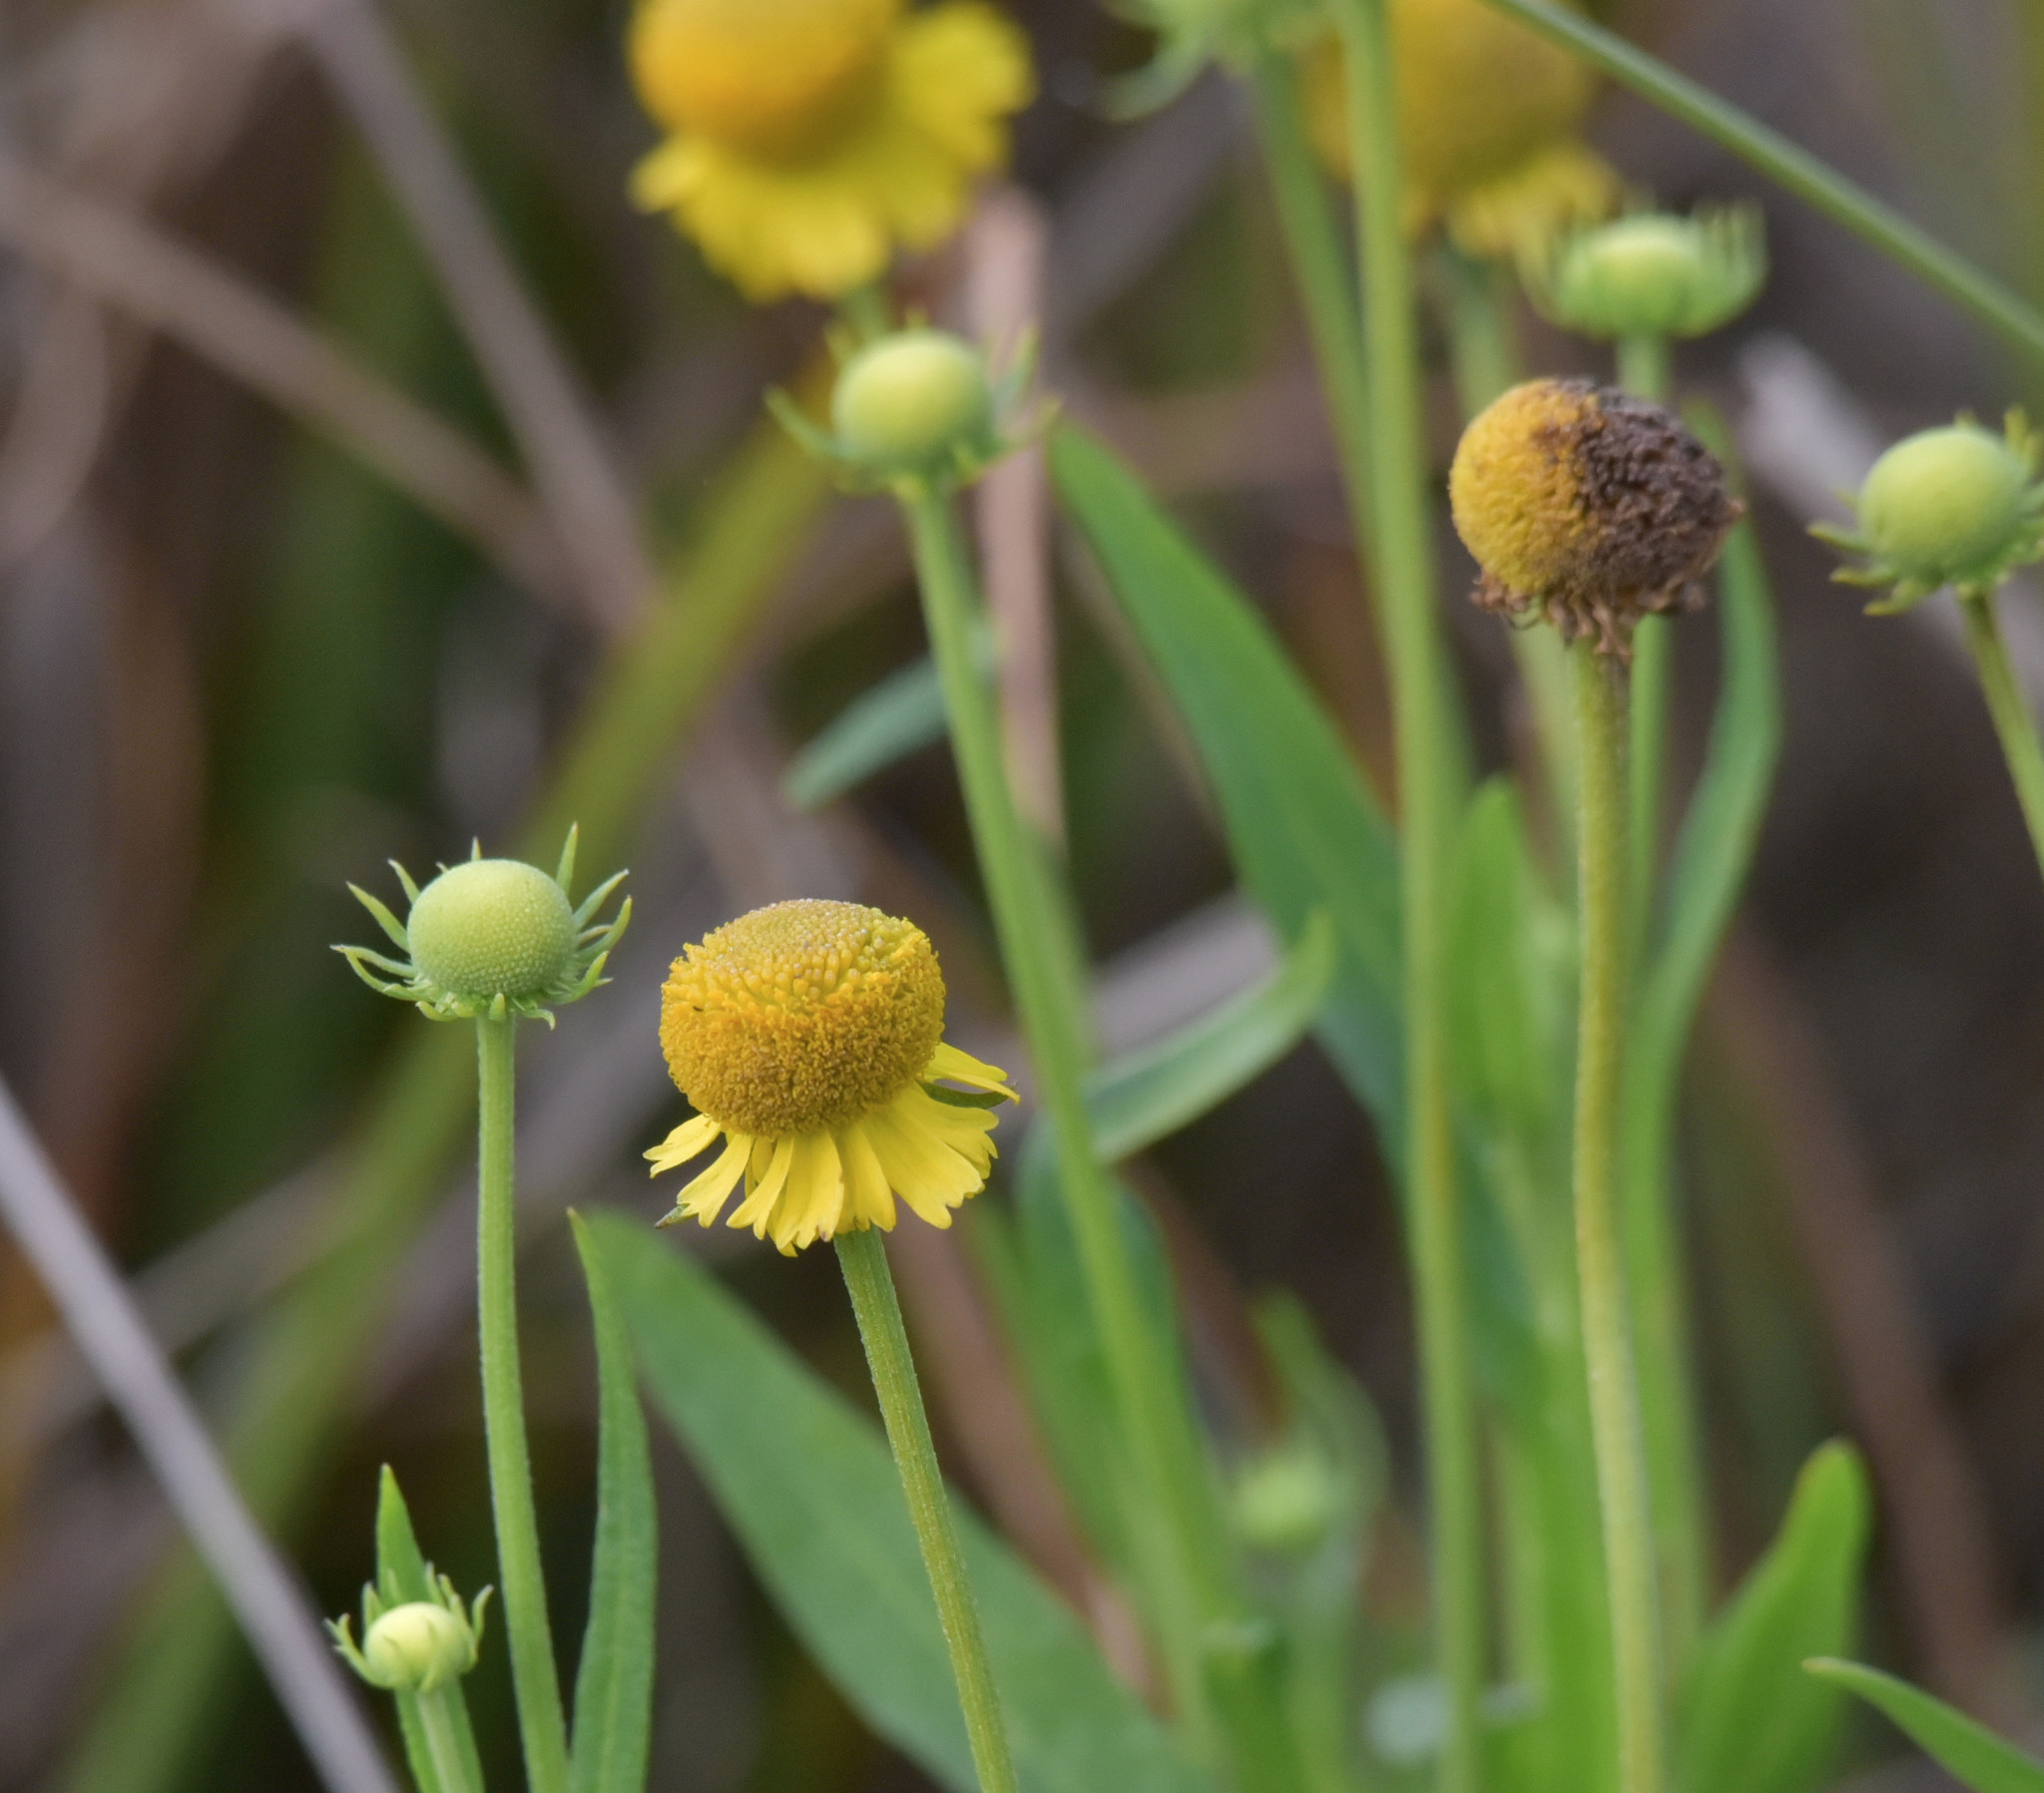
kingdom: Plantae
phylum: Tracheophyta
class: Magnoliopsida
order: Asterales
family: Asteraceae
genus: Helenium
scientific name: Helenium puberulum
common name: Sneezewort
